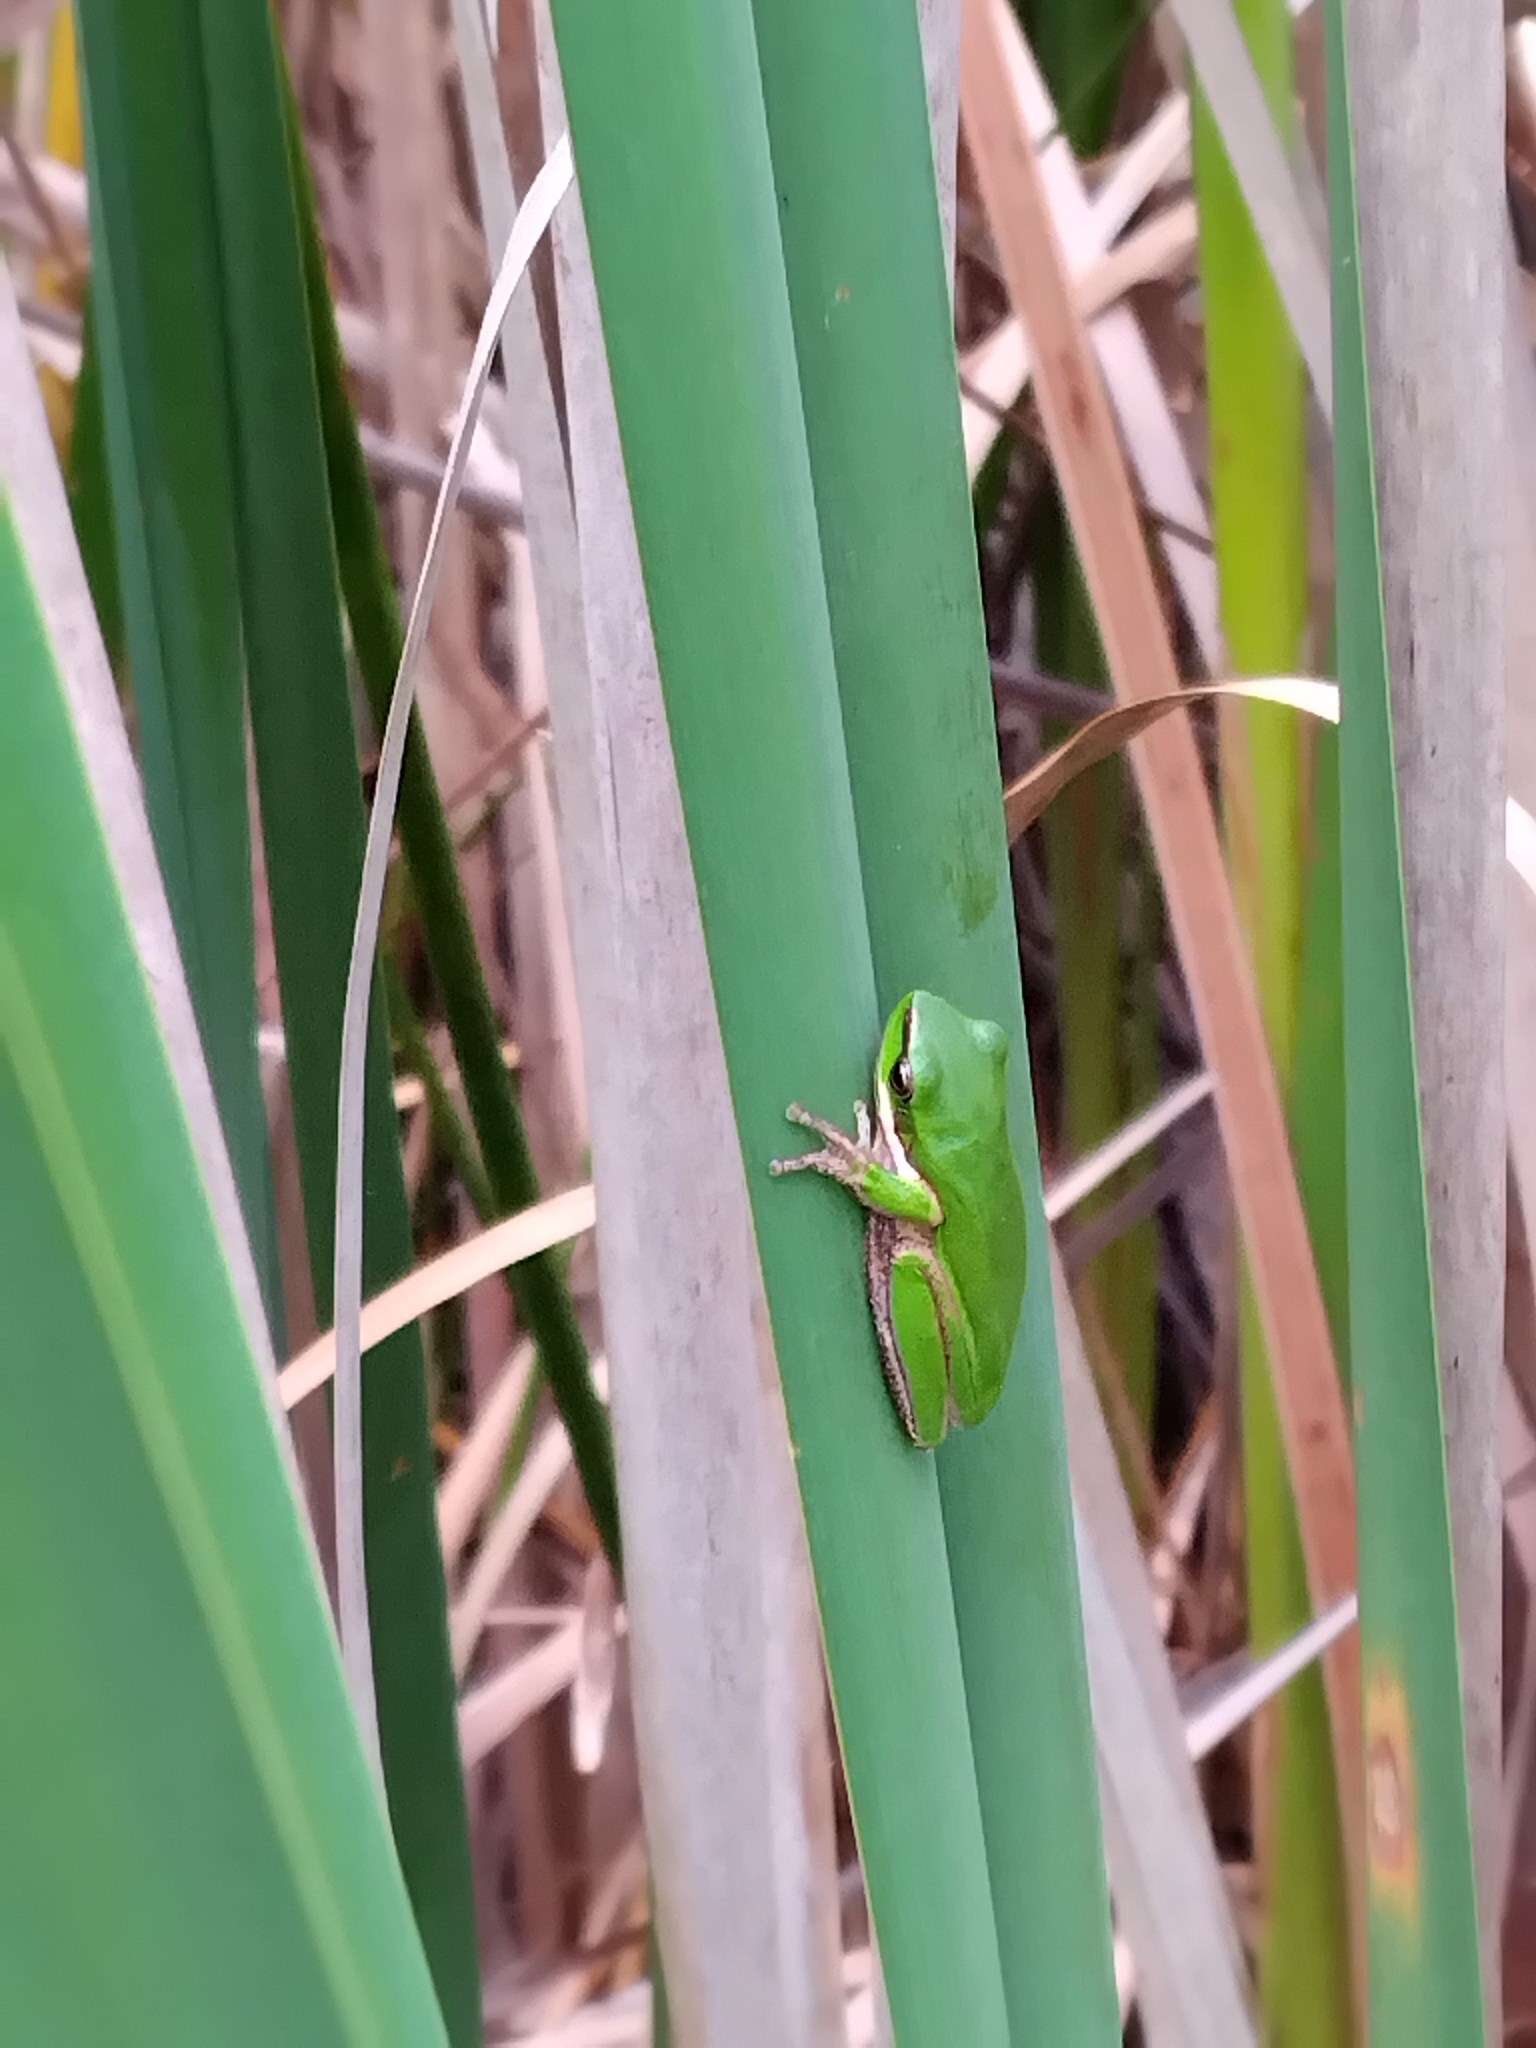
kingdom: Animalia
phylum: Chordata
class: Amphibia
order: Anura
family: Pelodryadidae
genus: Litoria
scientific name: Litoria fallax
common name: Eastern dwarf treefrog
